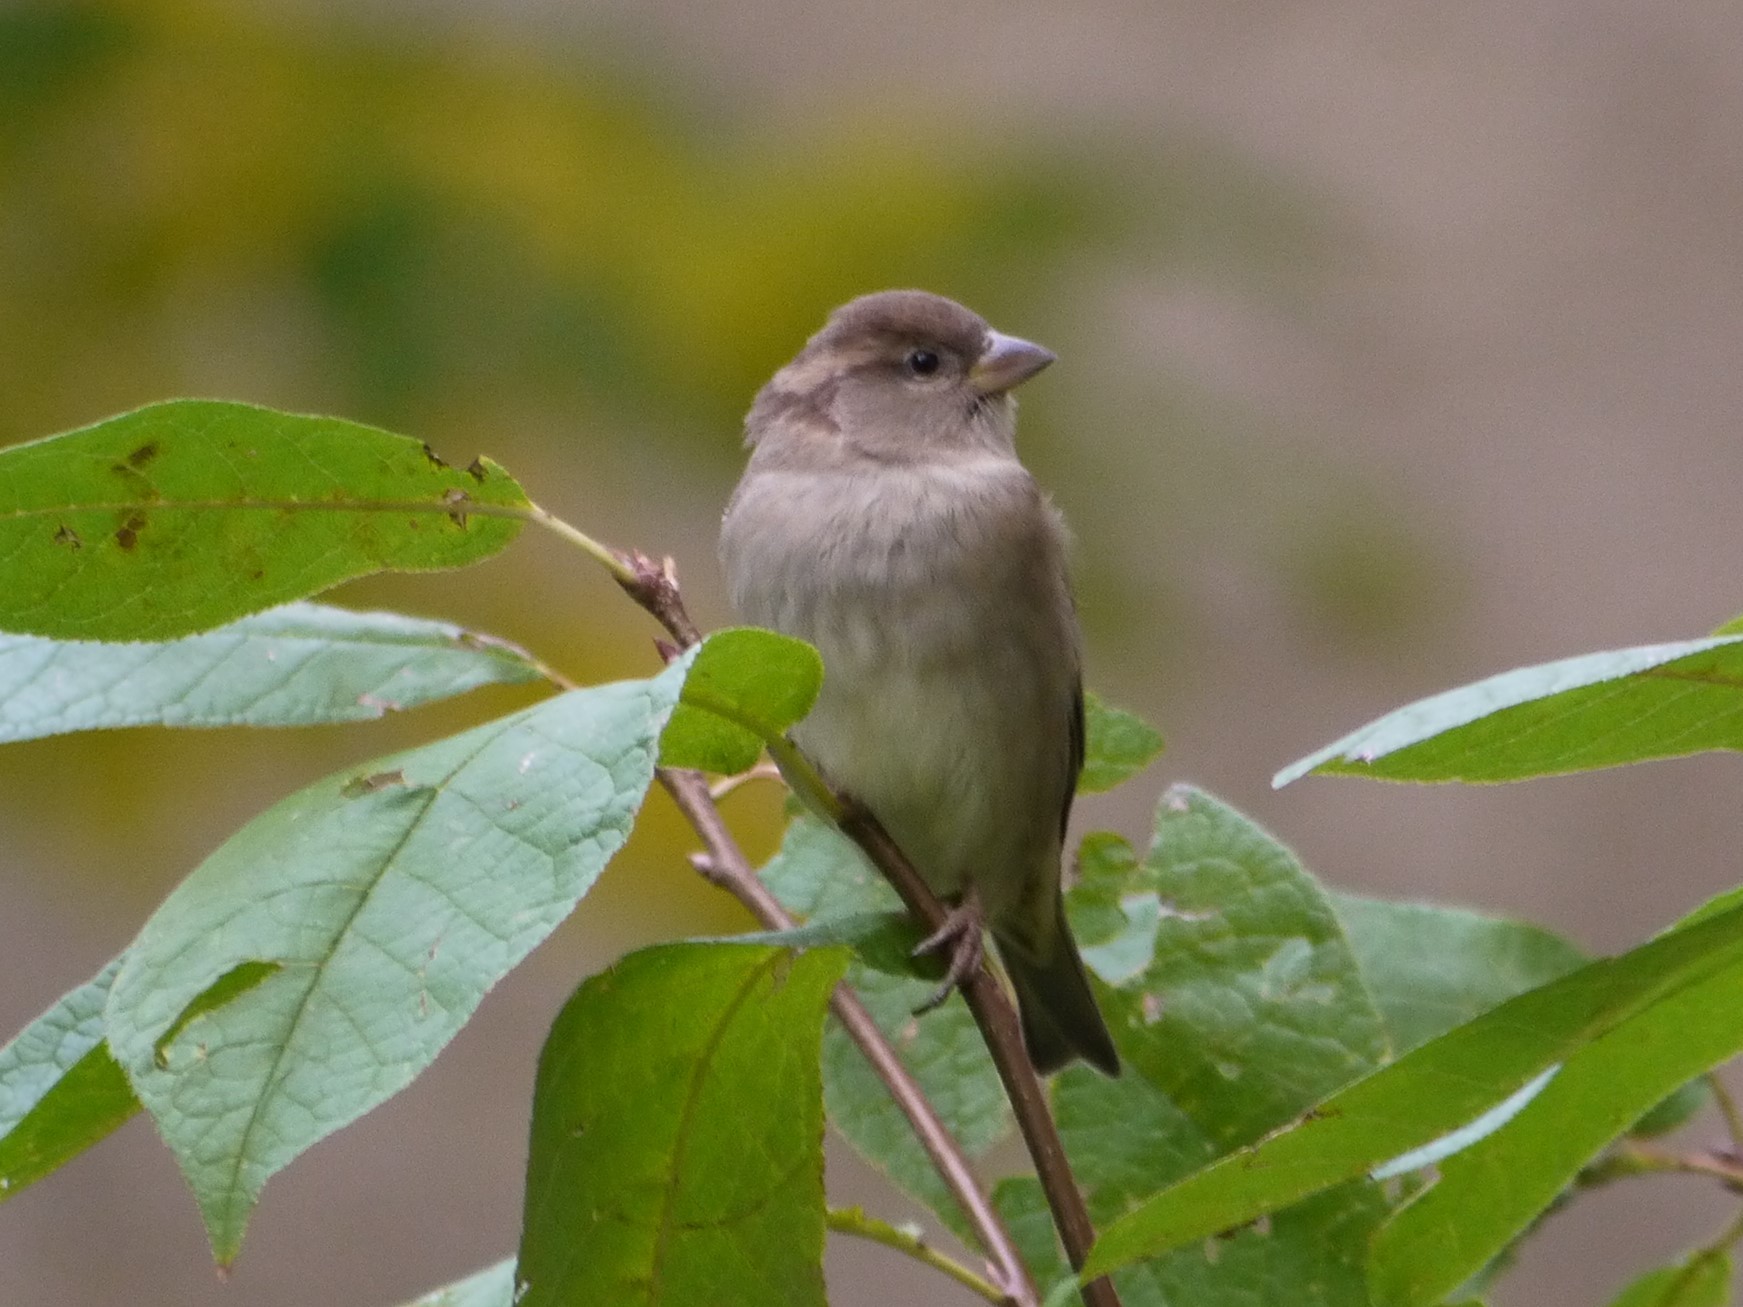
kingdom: Animalia
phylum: Chordata
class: Aves
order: Passeriformes
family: Passeridae
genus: Passer
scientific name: Passer domesticus
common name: House sparrow
